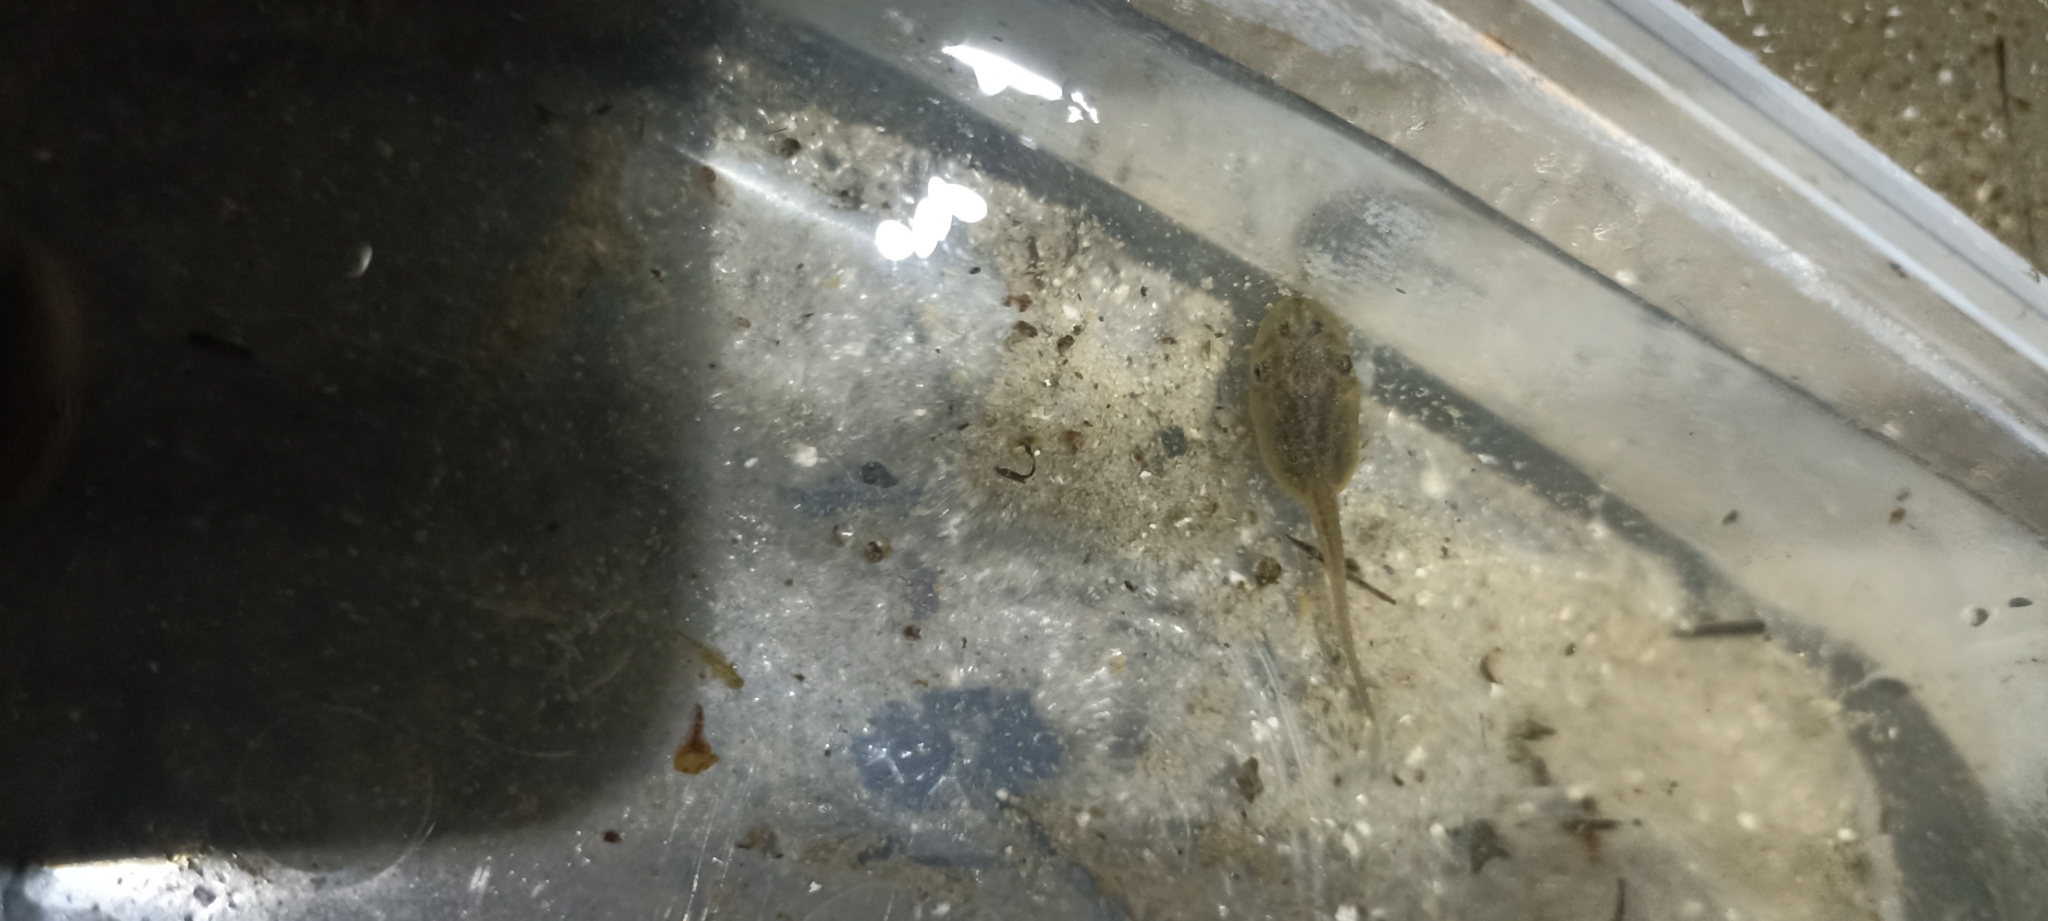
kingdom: Animalia
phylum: Chordata
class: Amphibia
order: Anura
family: Pelobatidae
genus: Pelobates
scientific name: Pelobates cultripes
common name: Western spadefoot
